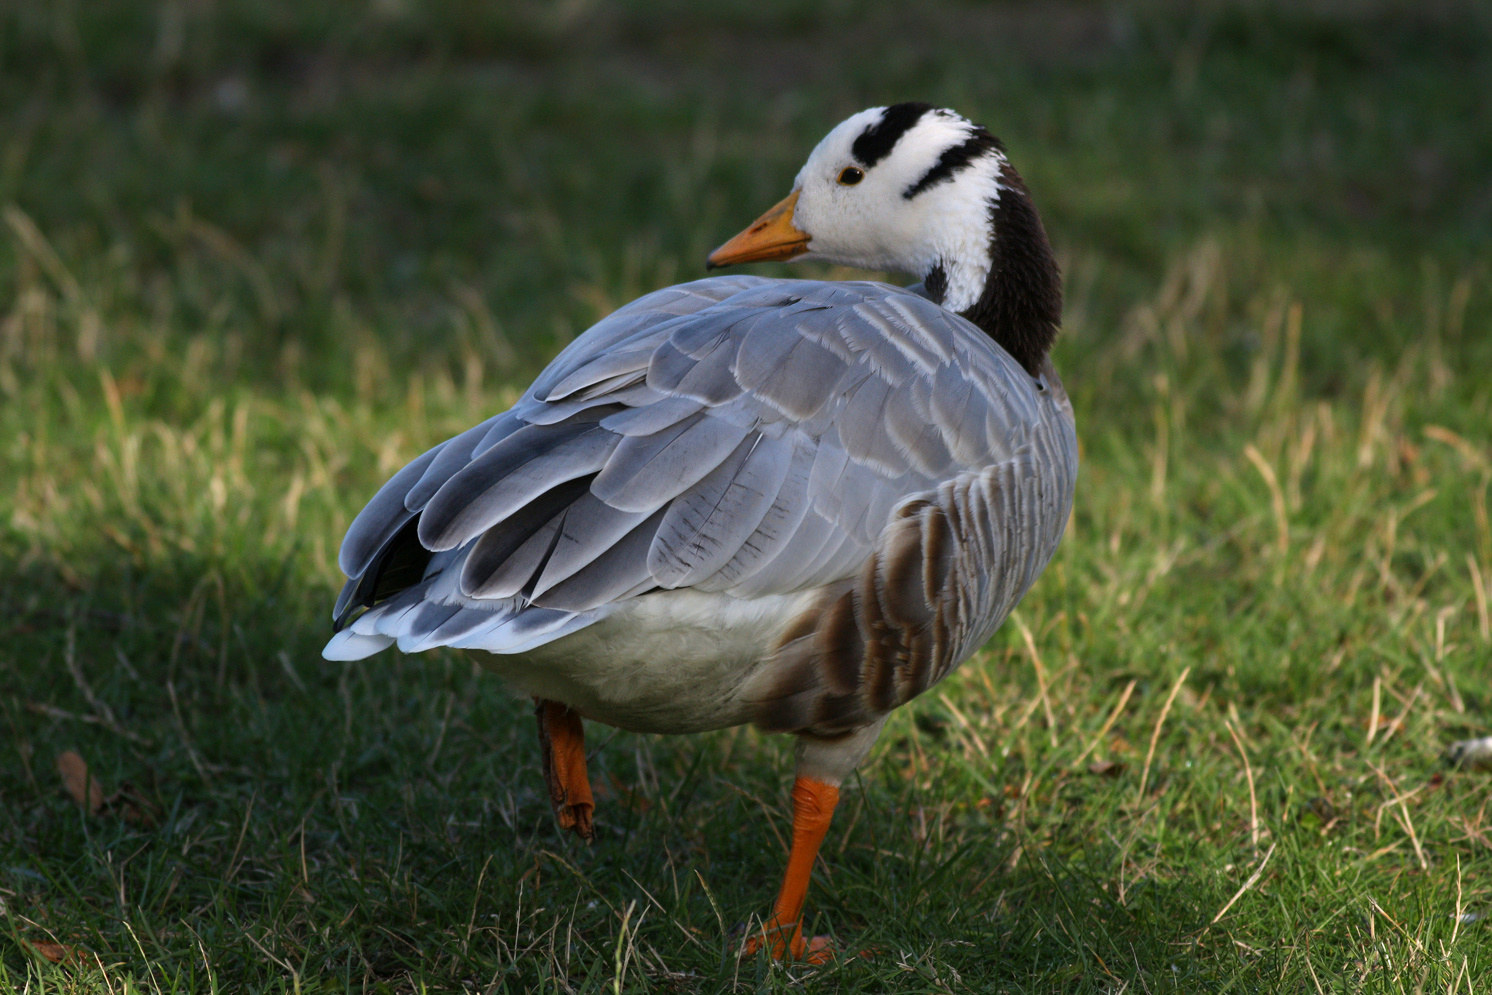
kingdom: Animalia
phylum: Chordata
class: Aves
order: Anseriformes
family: Anatidae
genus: Anser
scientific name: Anser indicus
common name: Bar-headed goose
